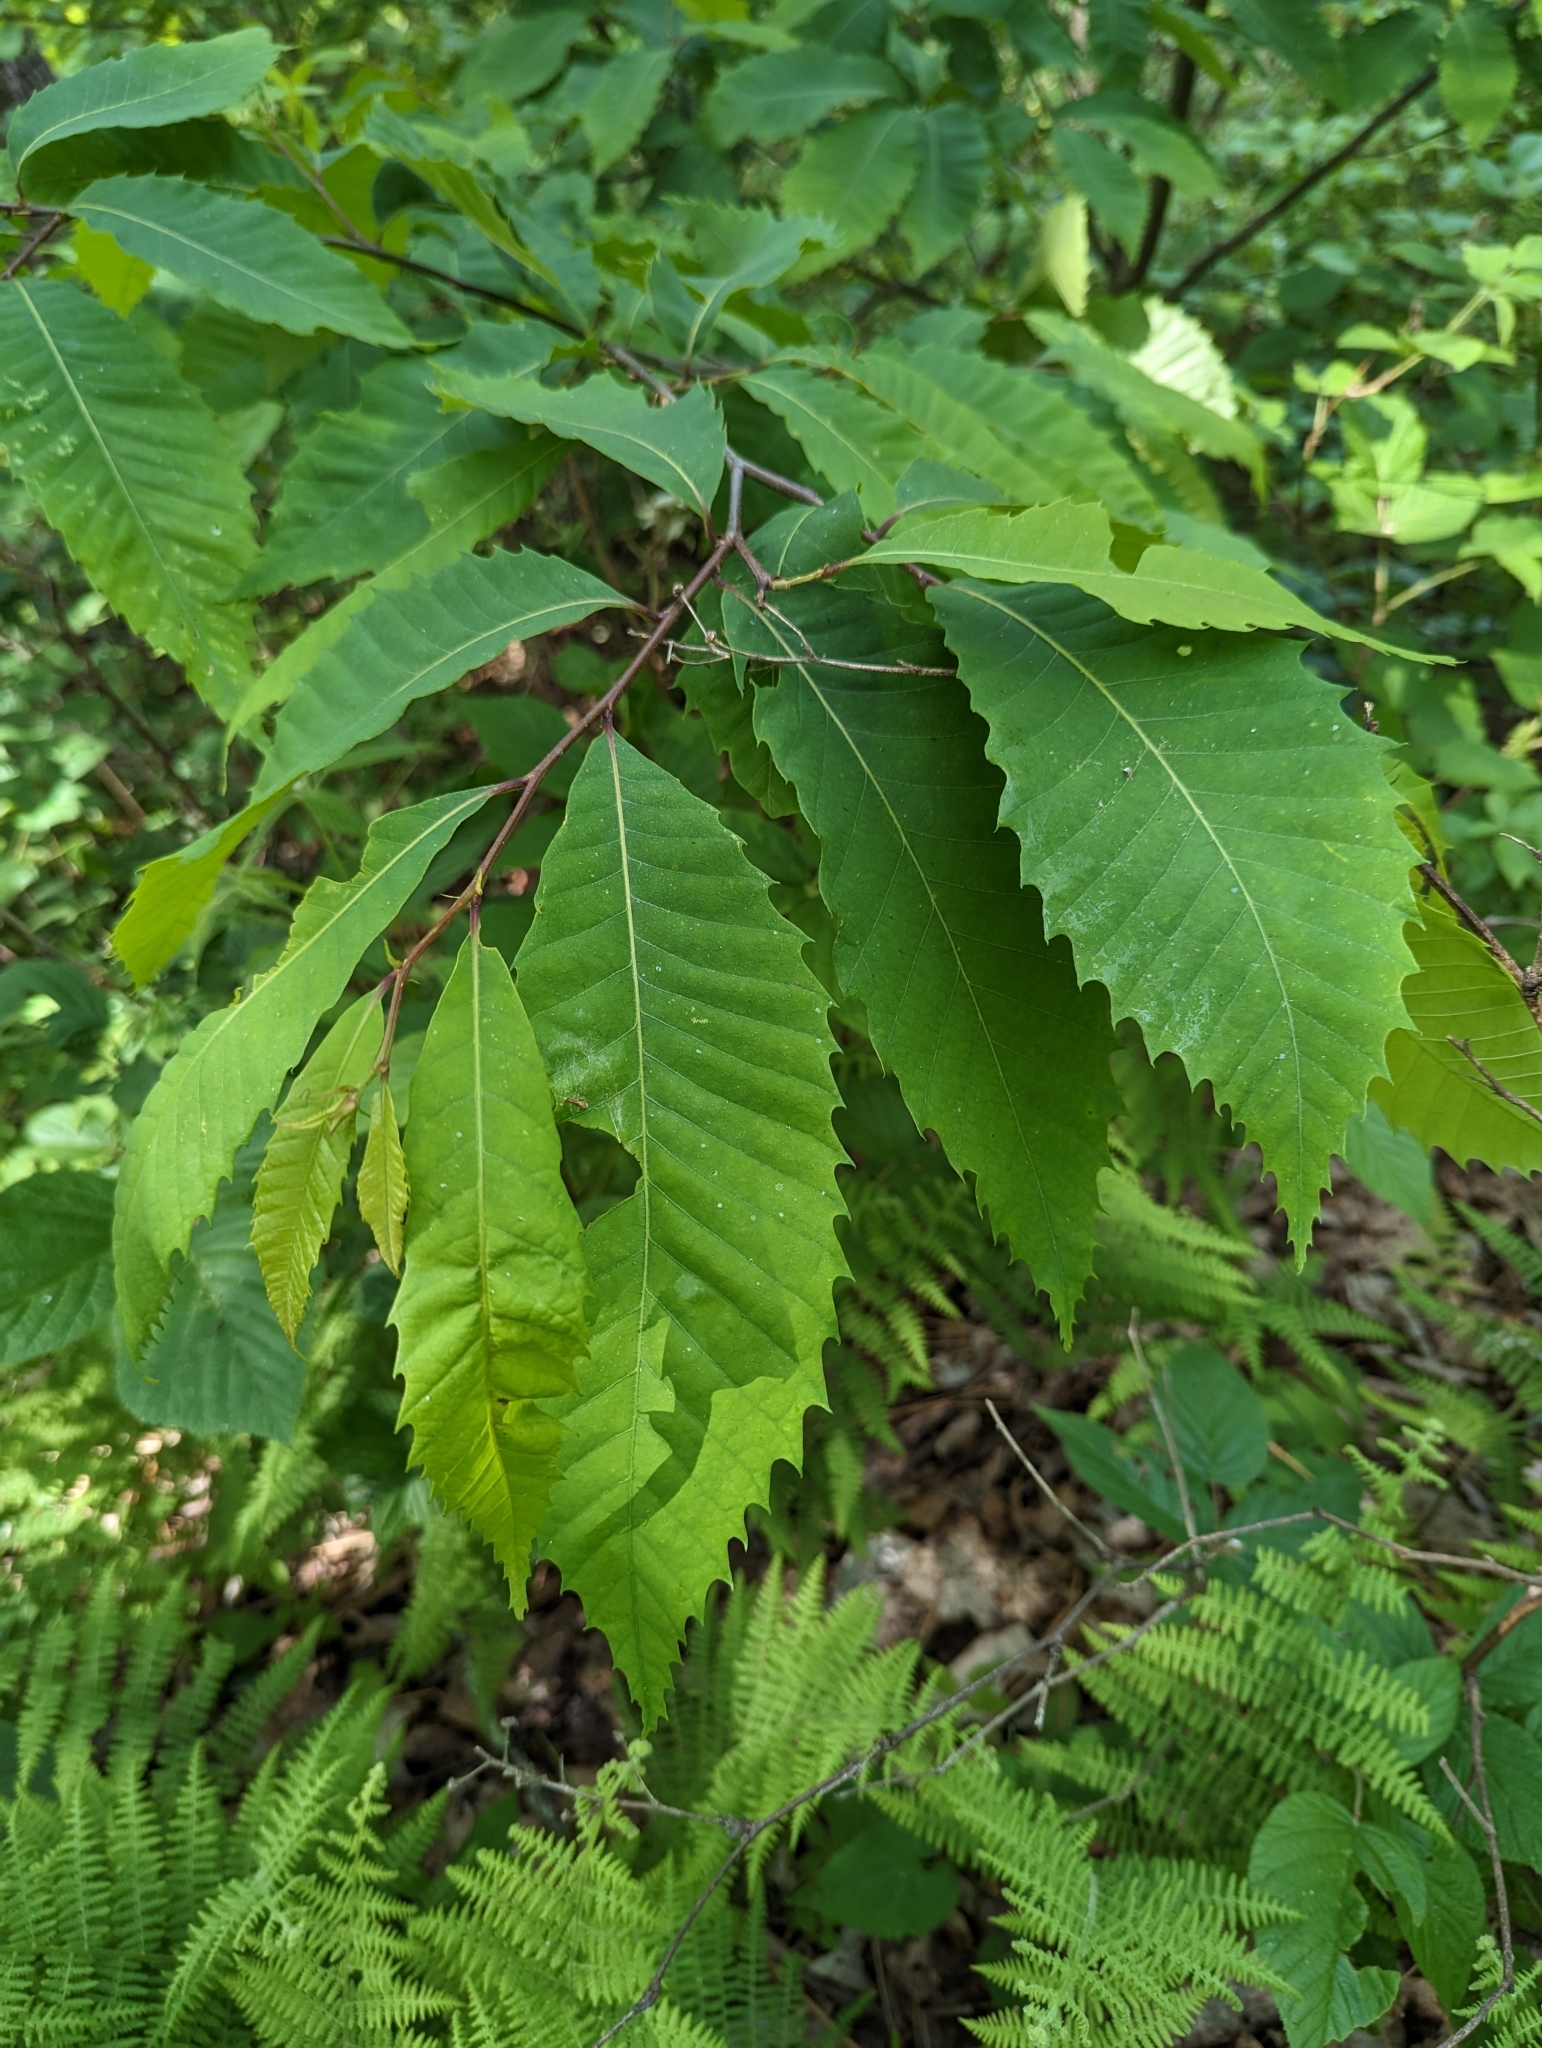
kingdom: Plantae
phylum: Tracheophyta
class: Magnoliopsida
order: Fagales
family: Fagaceae
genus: Castanea
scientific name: Castanea dentata
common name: American chestnut
